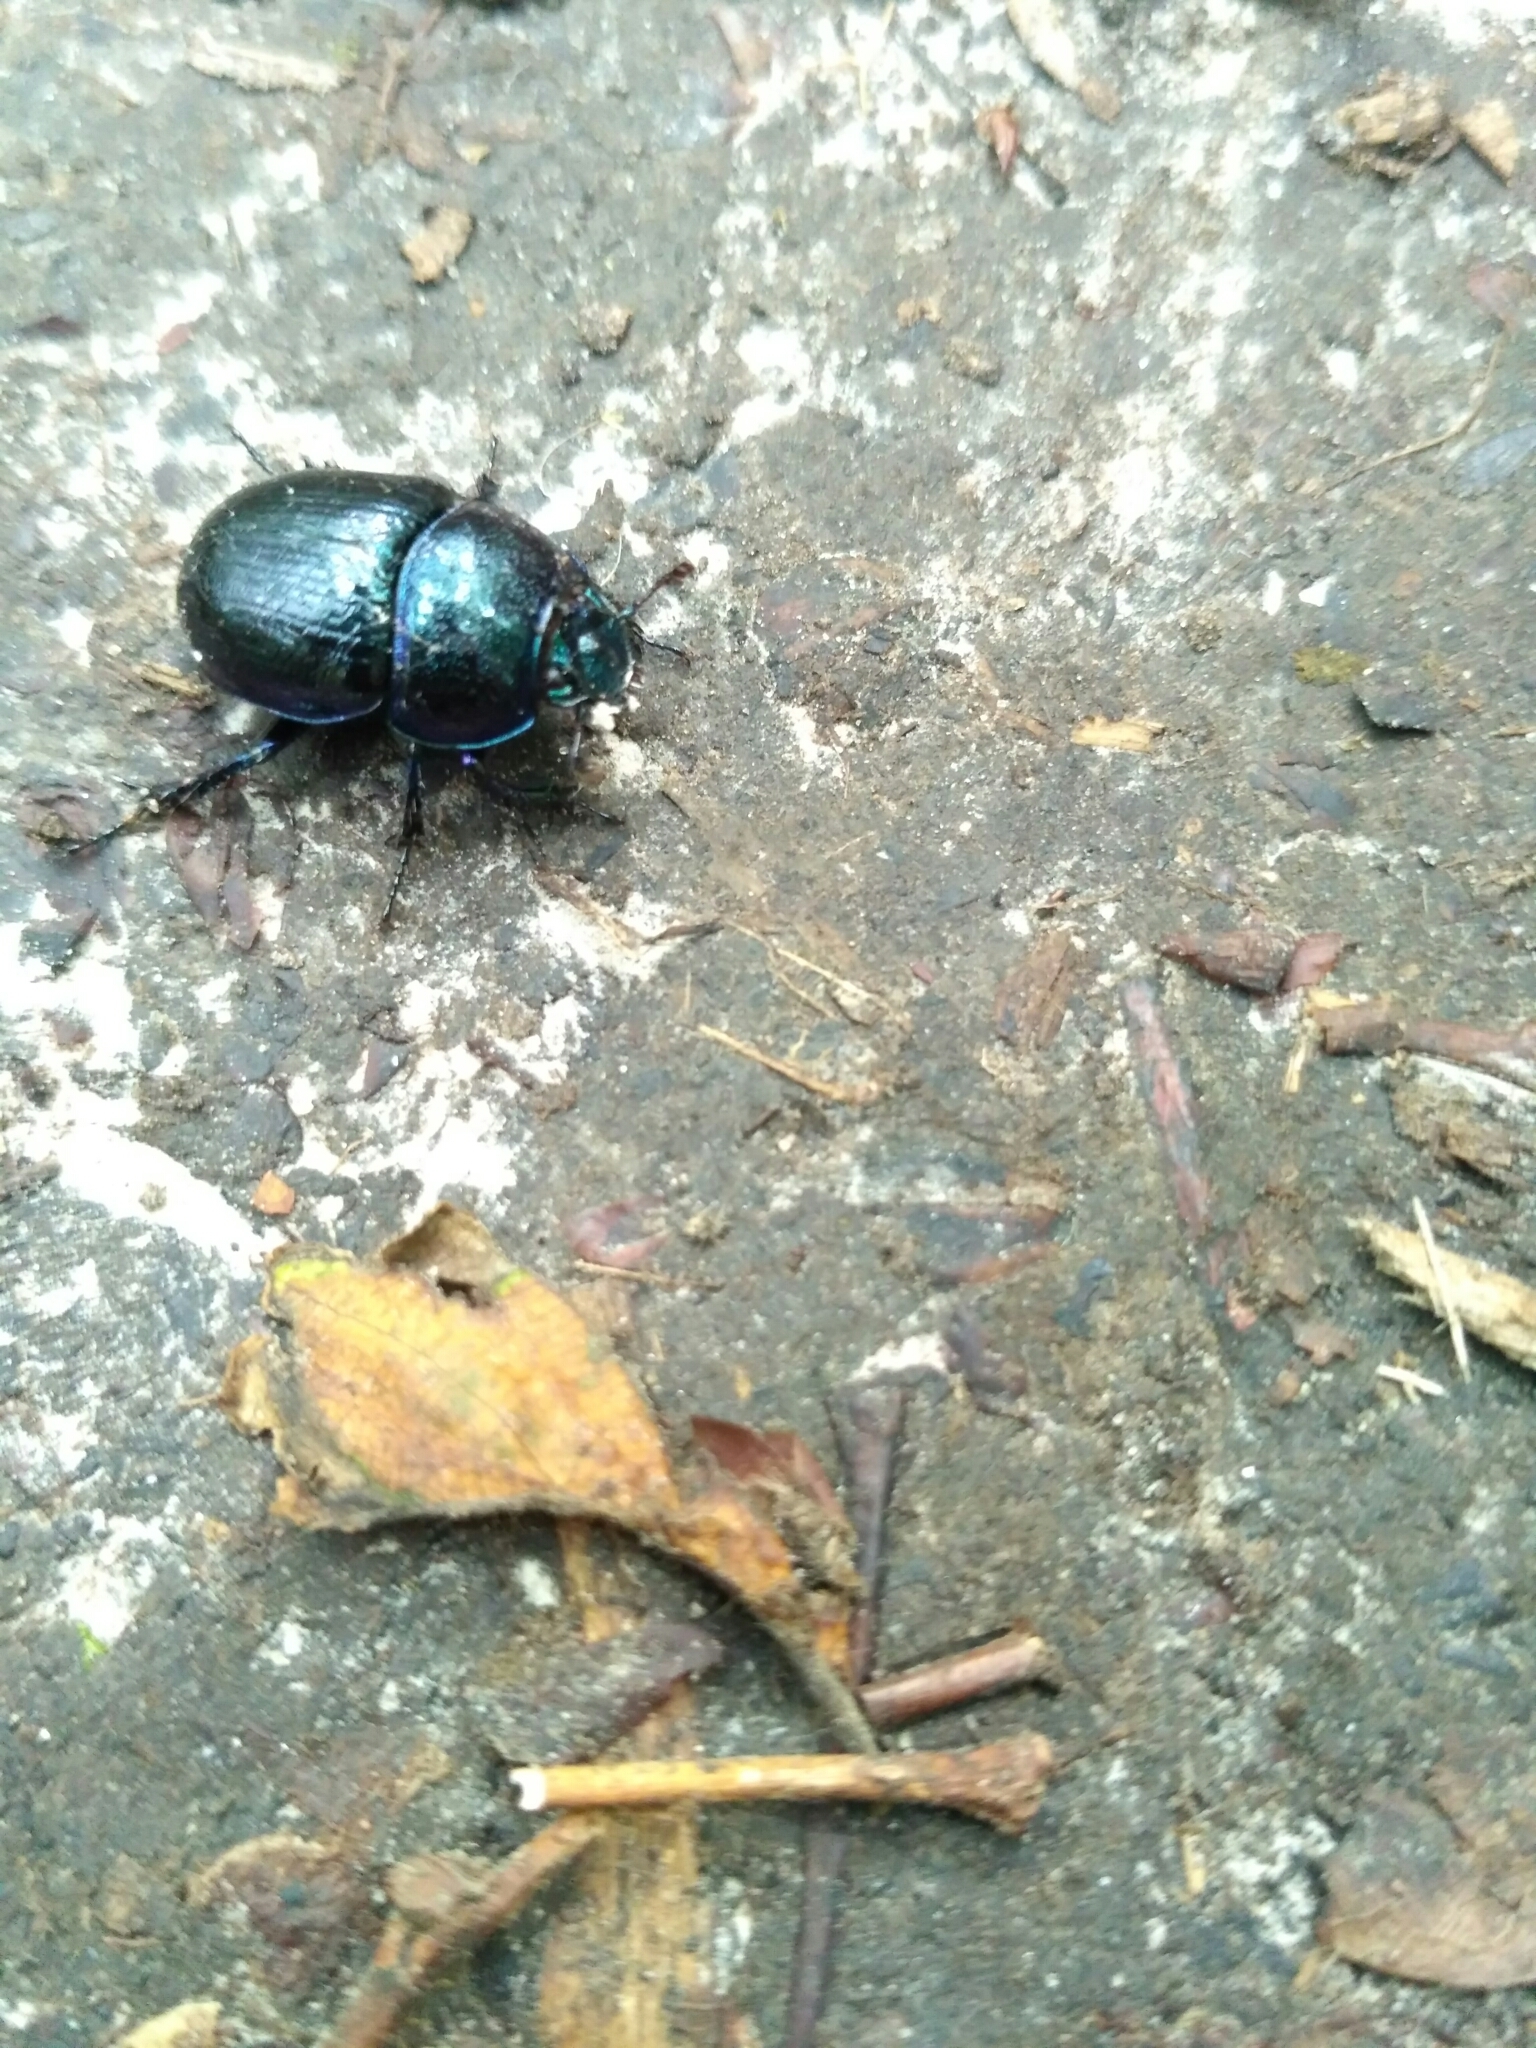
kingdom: Animalia
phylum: Arthropoda
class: Insecta
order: Coleoptera
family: Geotrupidae
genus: Anoplotrupes
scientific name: Anoplotrupes stercorosus
